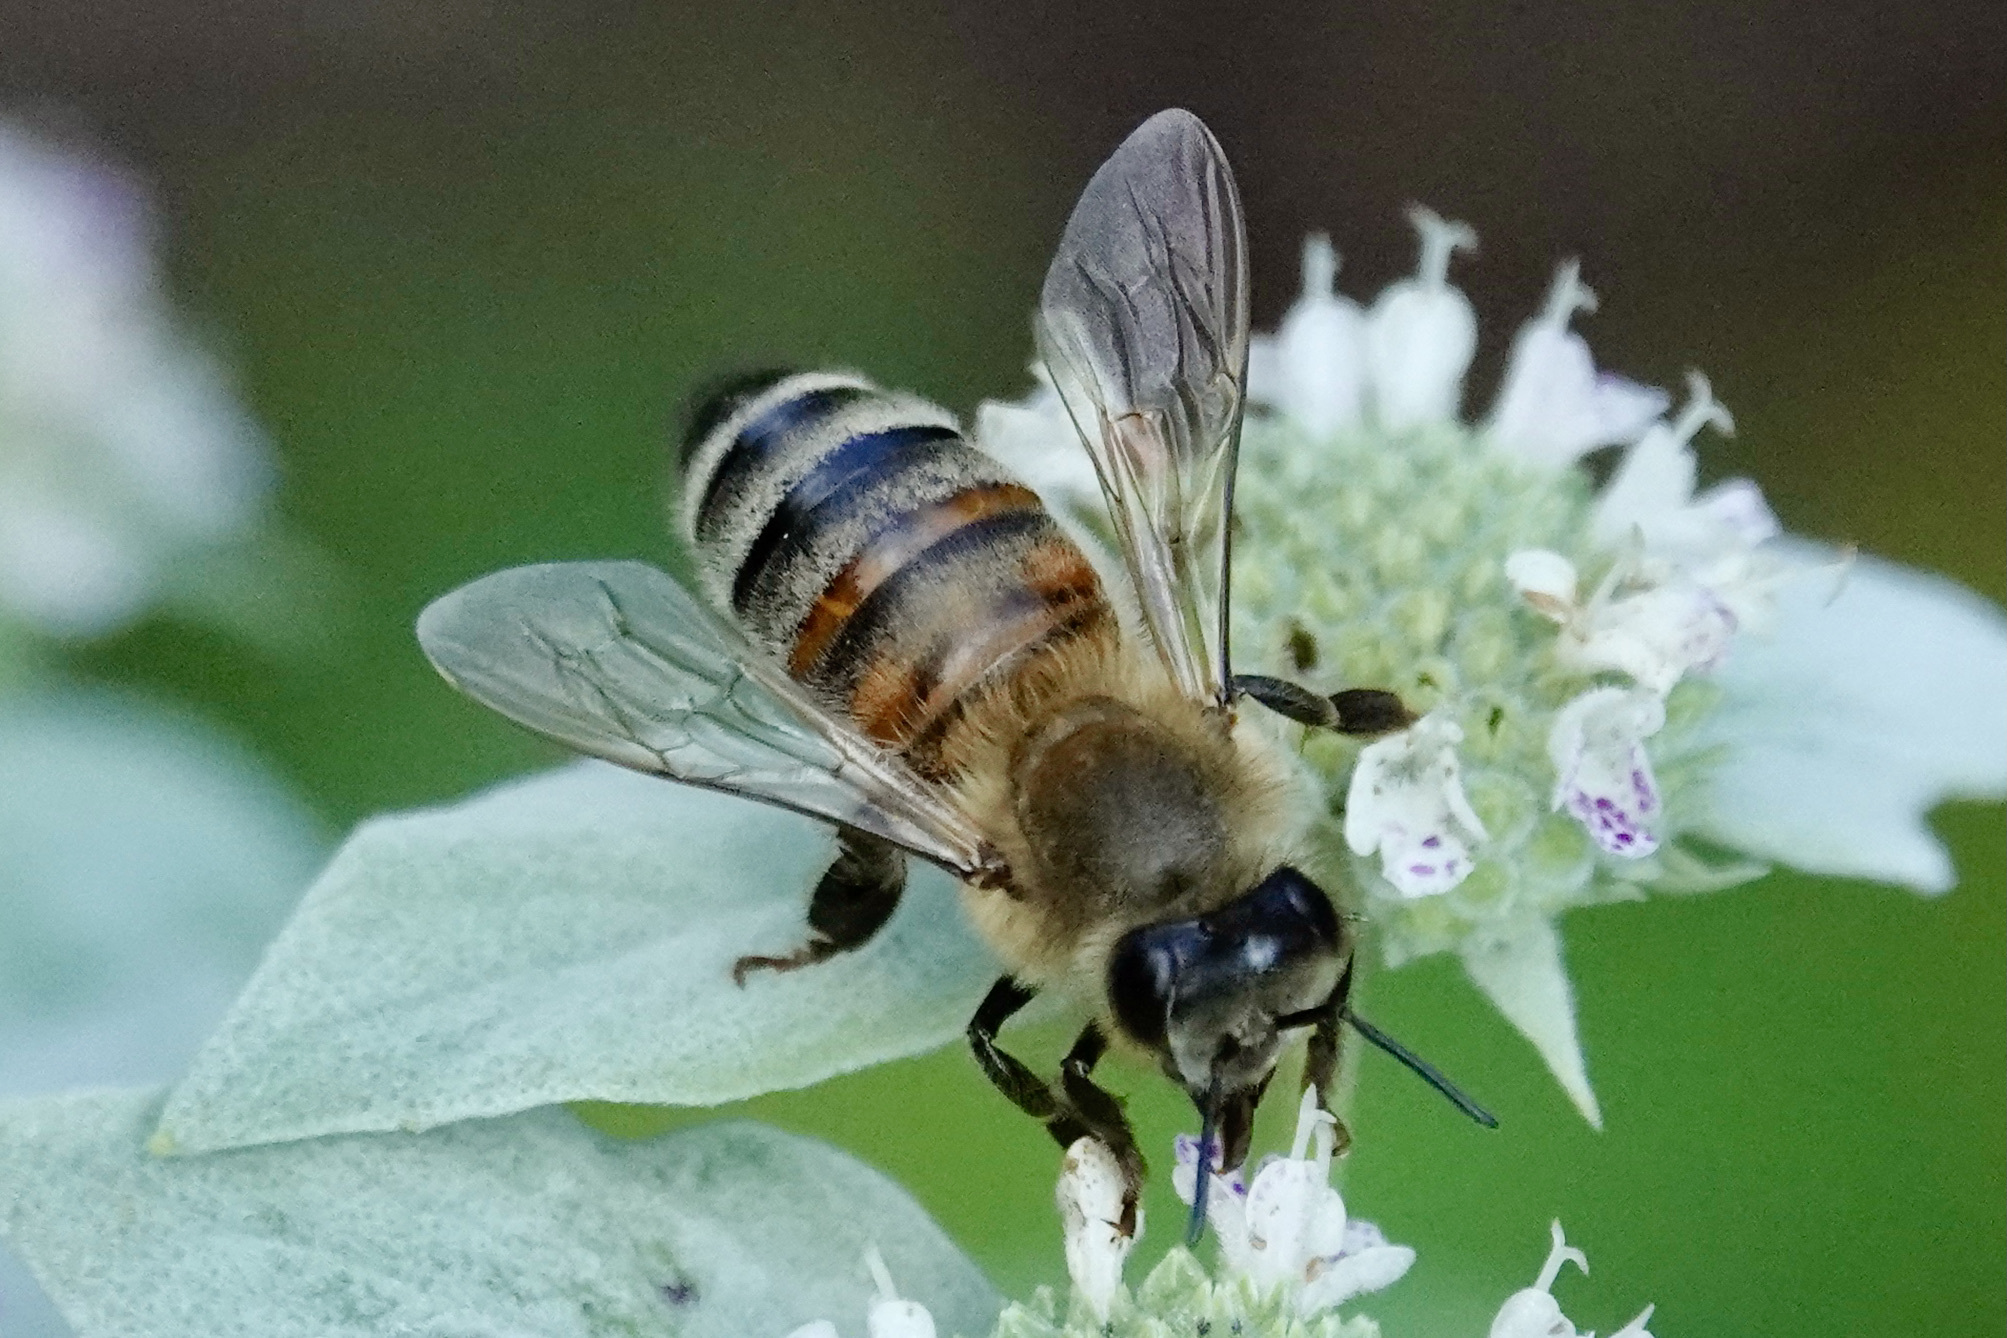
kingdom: Animalia
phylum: Arthropoda
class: Insecta
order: Hymenoptera
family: Apidae
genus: Apis
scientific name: Apis mellifera
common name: Honey bee
